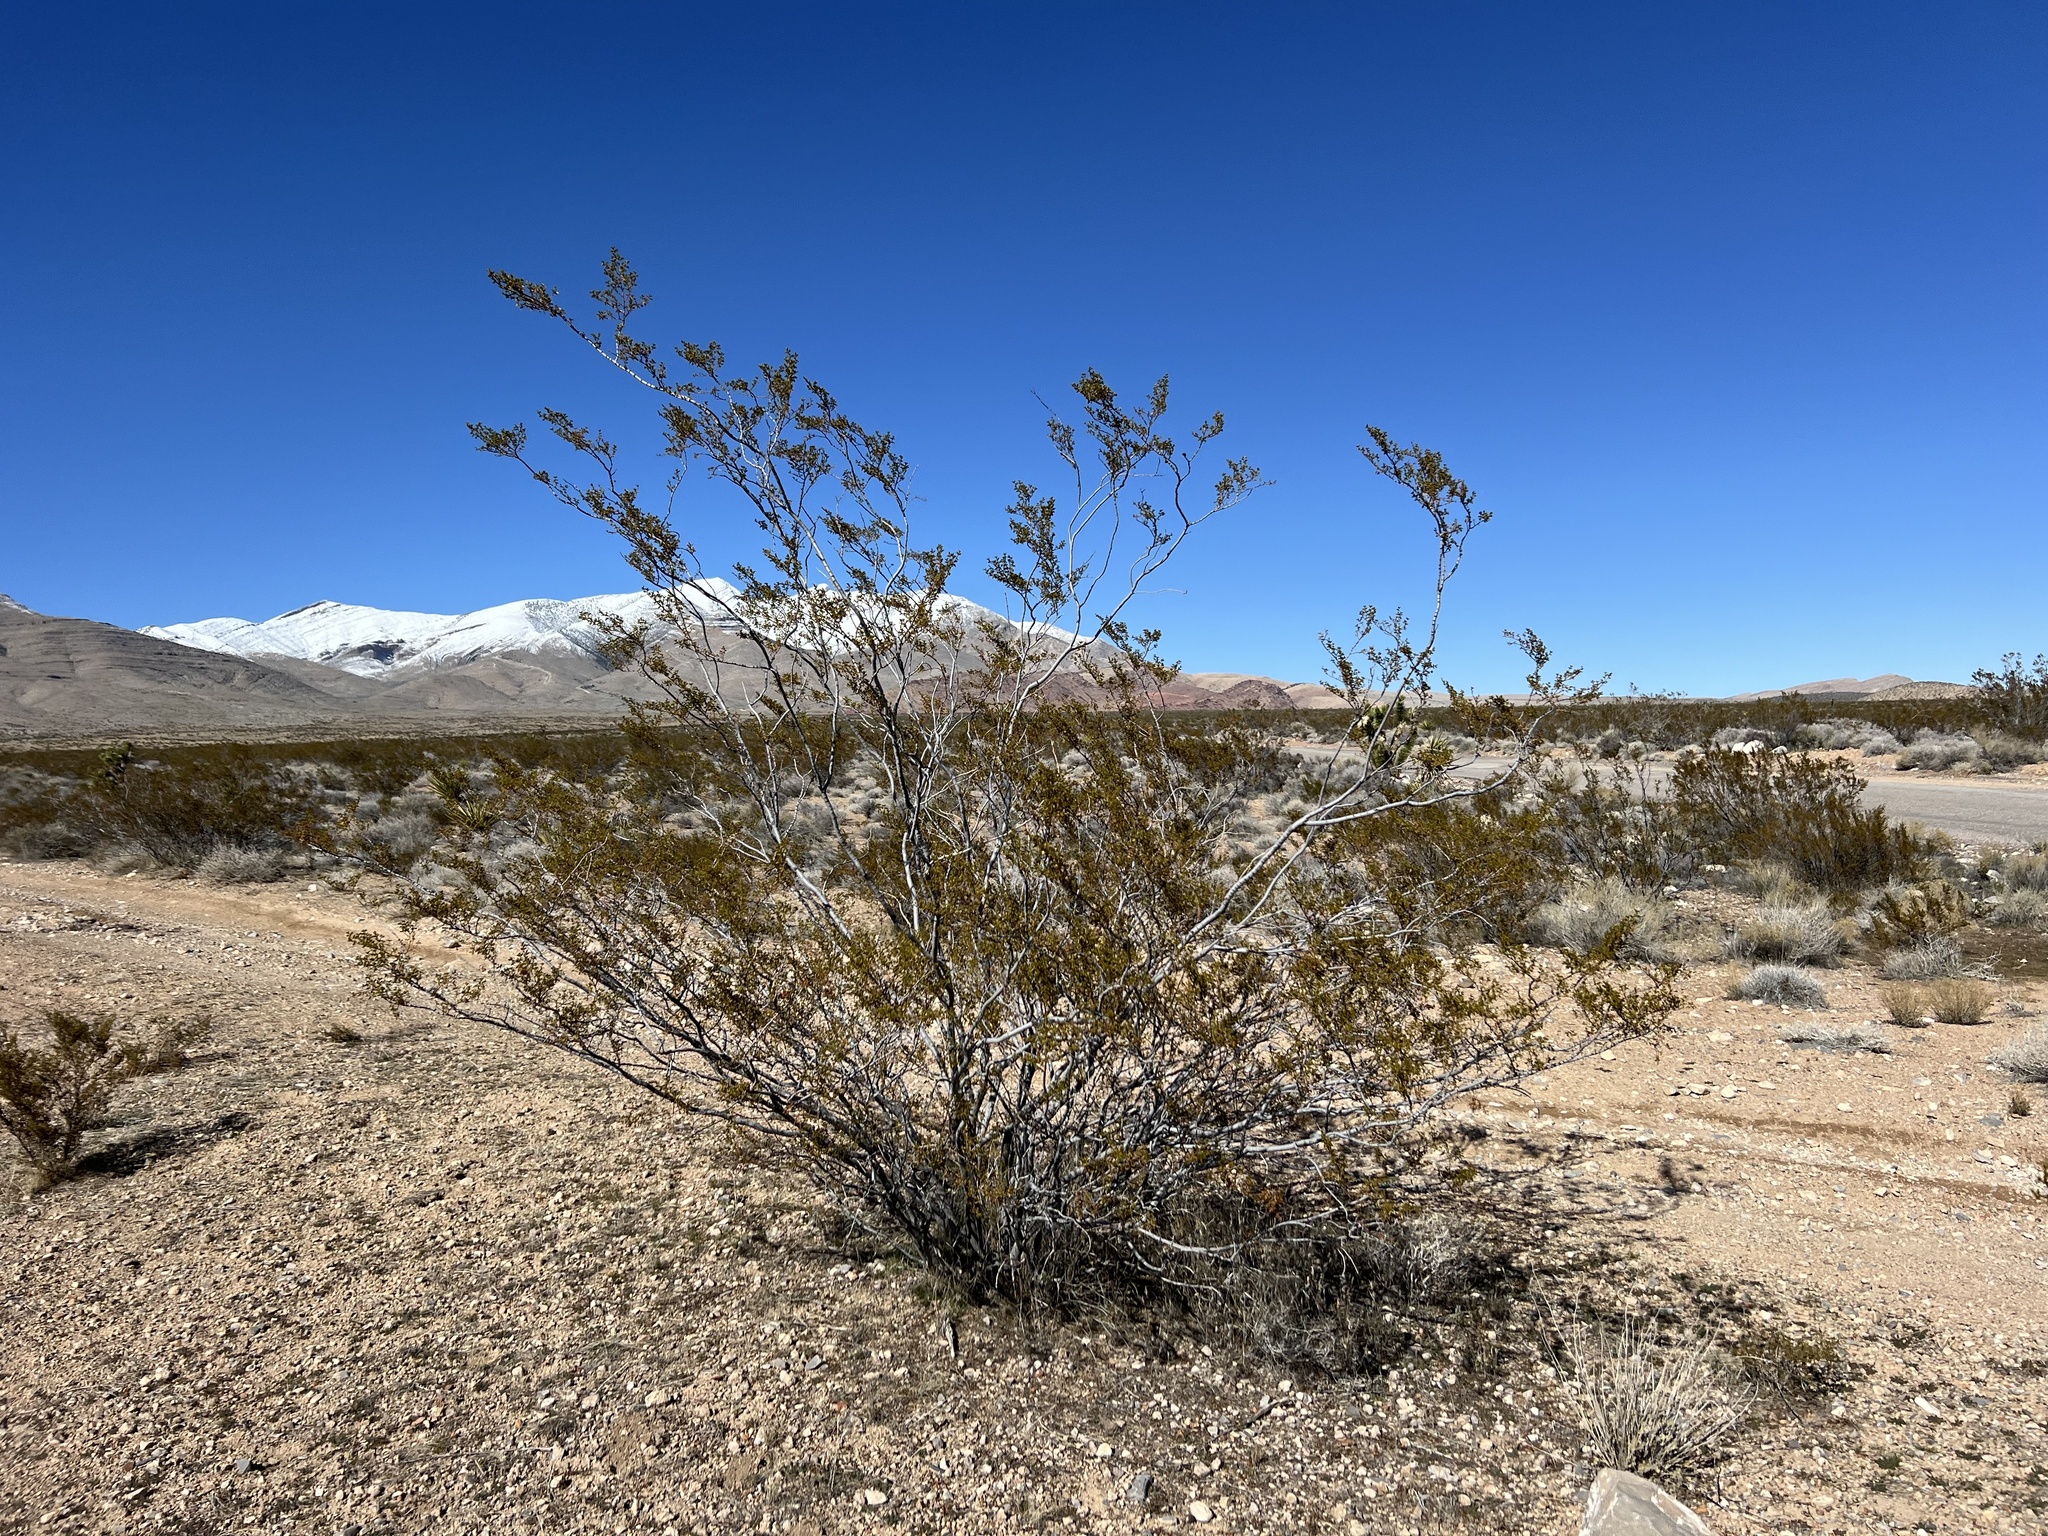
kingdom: Plantae
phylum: Tracheophyta
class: Magnoliopsida
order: Zygophyllales
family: Zygophyllaceae
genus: Larrea
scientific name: Larrea tridentata
